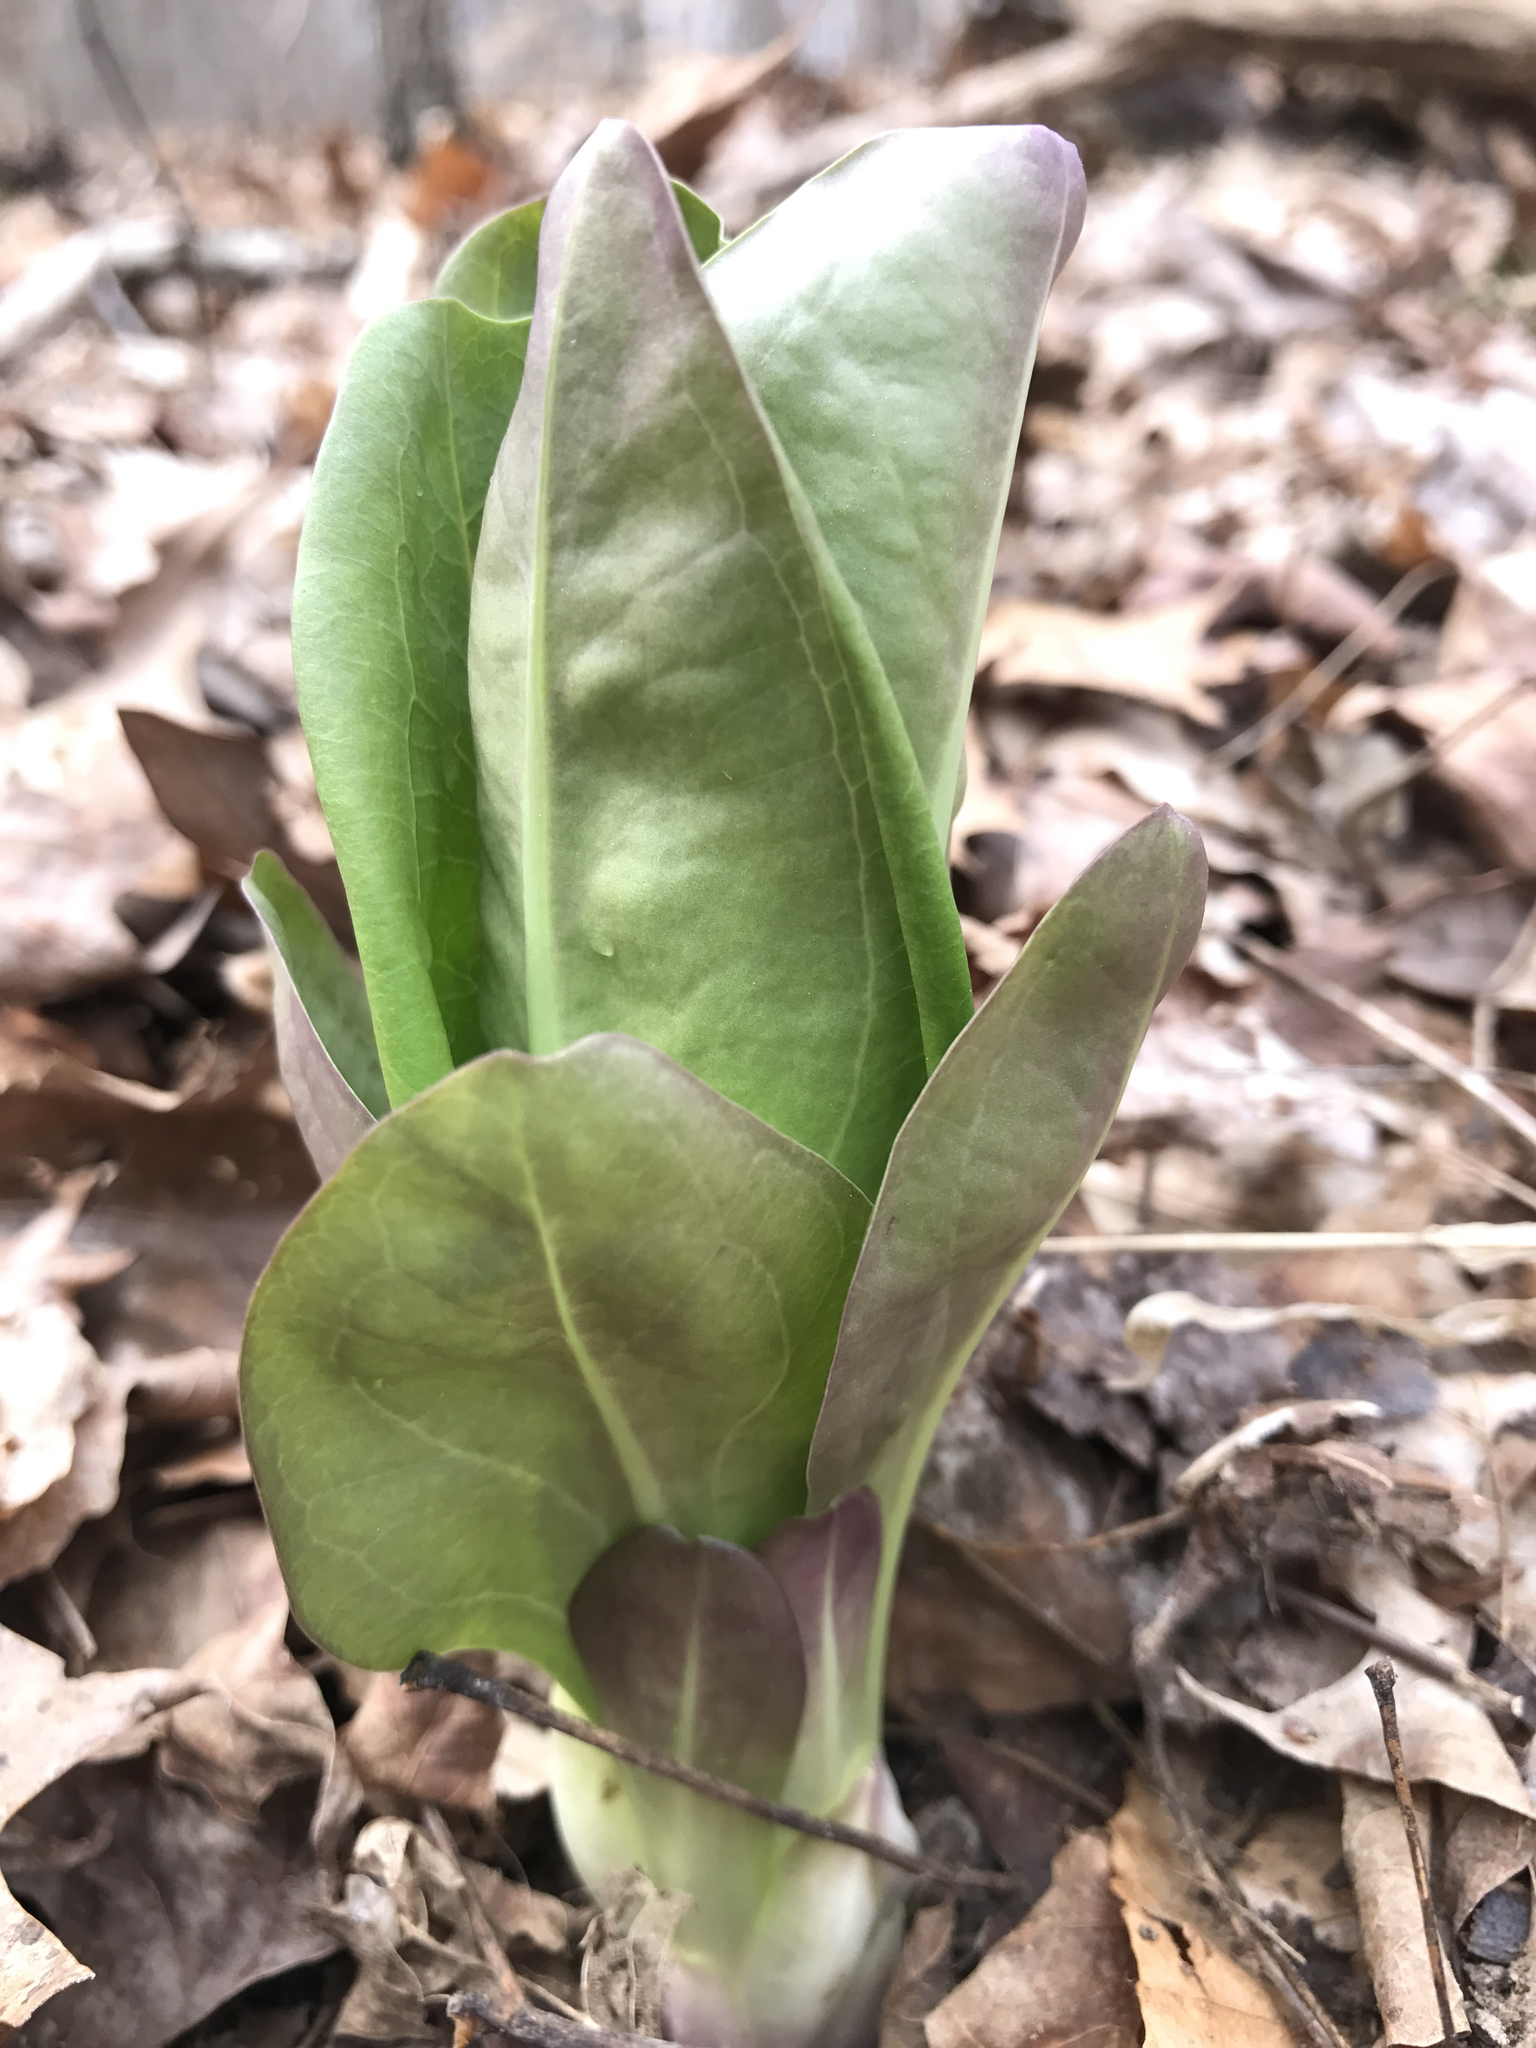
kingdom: Plantae
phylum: Tracheophyta
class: Magnoliopsida
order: Gentianales
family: Gentianaceae
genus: Frasera
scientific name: Frasera caroliniensis
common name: American columbo
